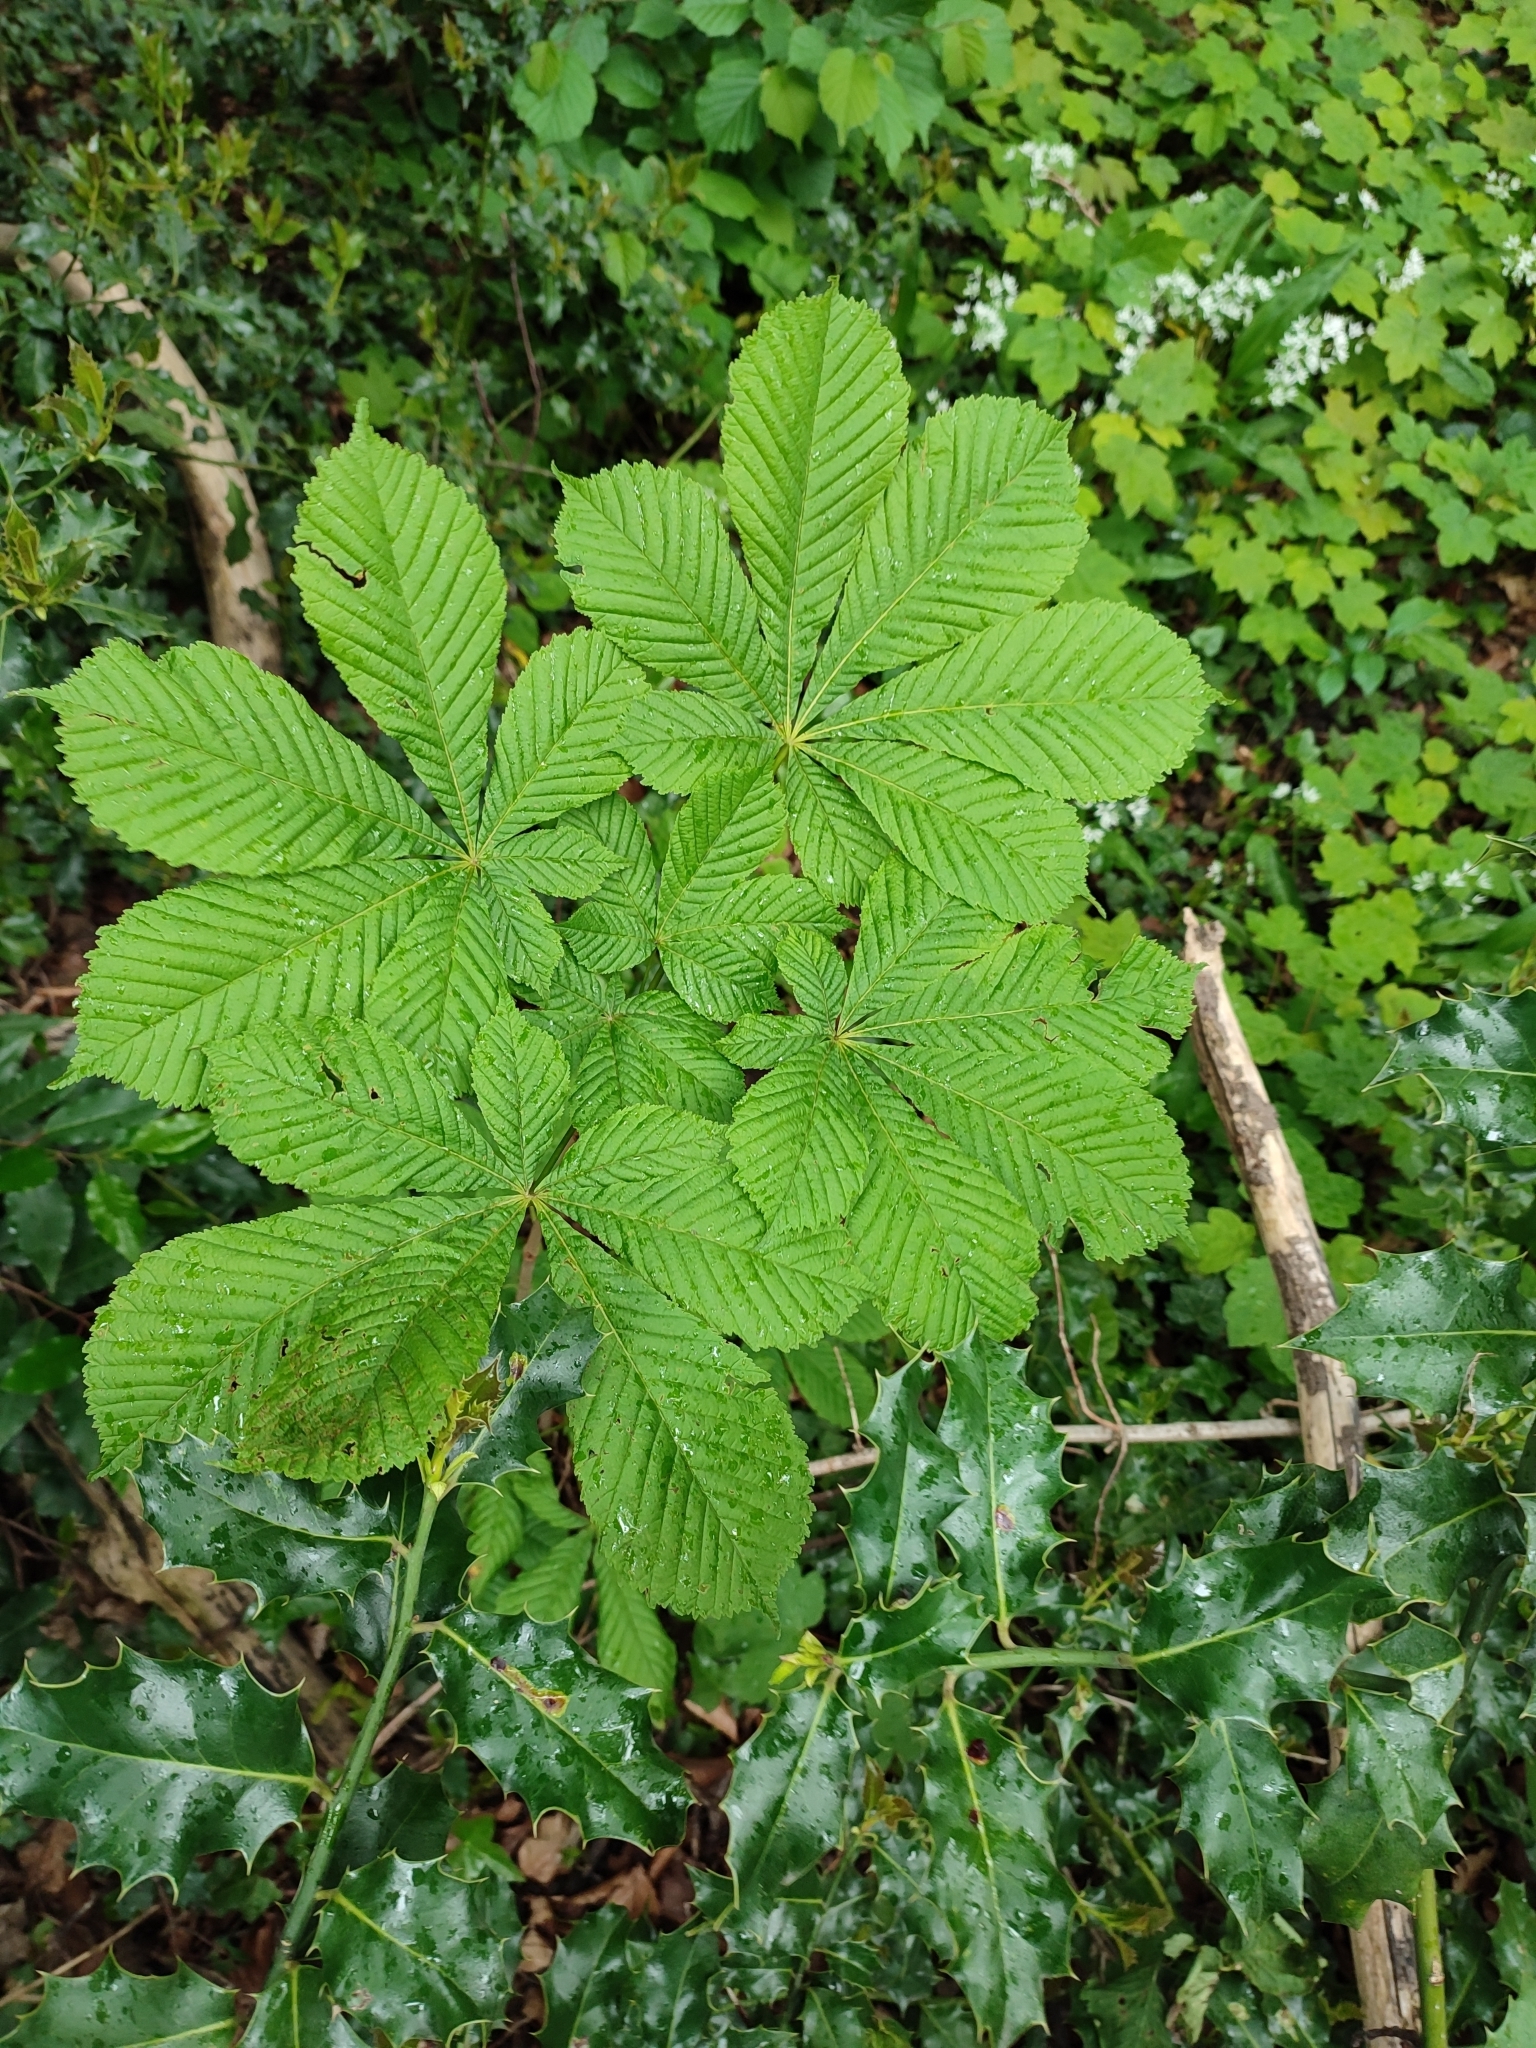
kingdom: Plantae
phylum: Tracheophyta
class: Magnoliopsida
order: Sapindales
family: Sapindaceae
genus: Aesculus
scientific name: Aesculus hippocastanum
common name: Horse-chestnut
